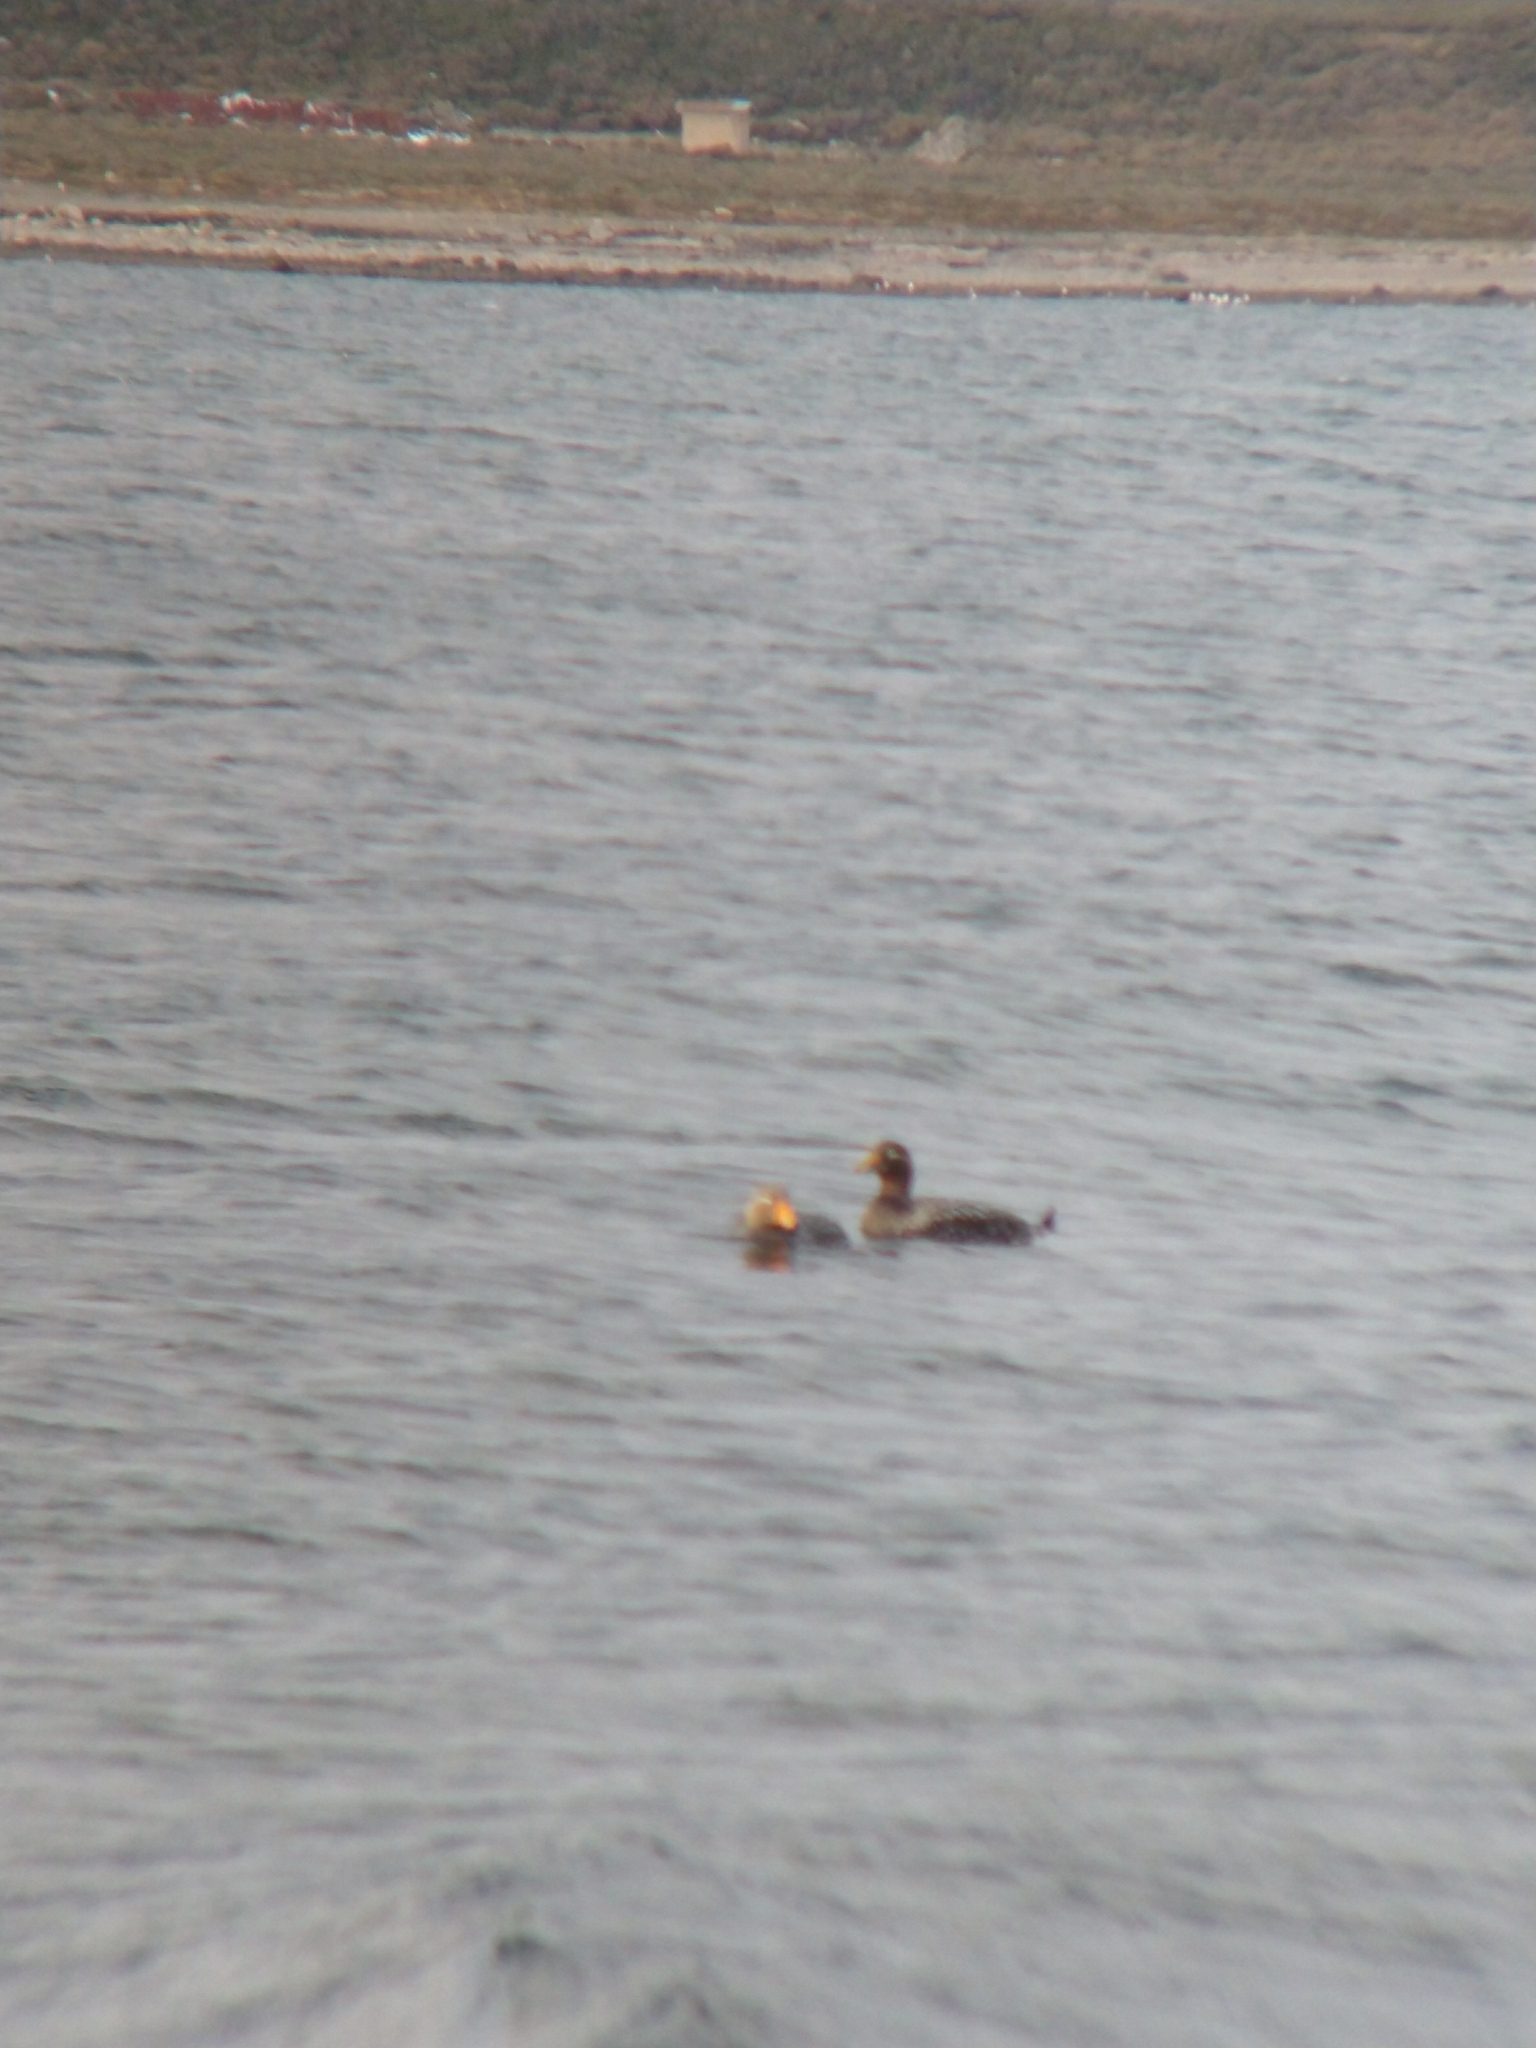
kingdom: Animalia
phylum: Chordata
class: Aves
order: Anseriformes
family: Anatidae
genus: Tachyeres
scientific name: Tachyeres patachonicus
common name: Flying steamer duck
